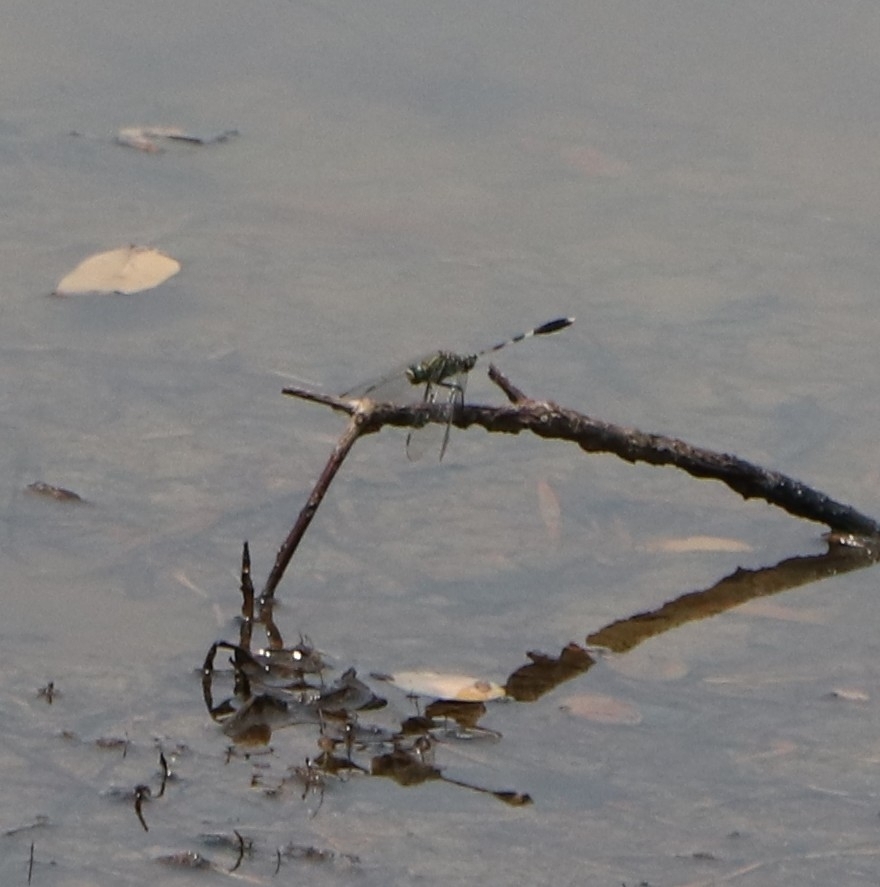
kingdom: Animalia
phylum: Arthropoda
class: Insecta
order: Odonata
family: Libellulidae
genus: Orthetrum
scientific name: Orthetrum sabina
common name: Slender skimmer
